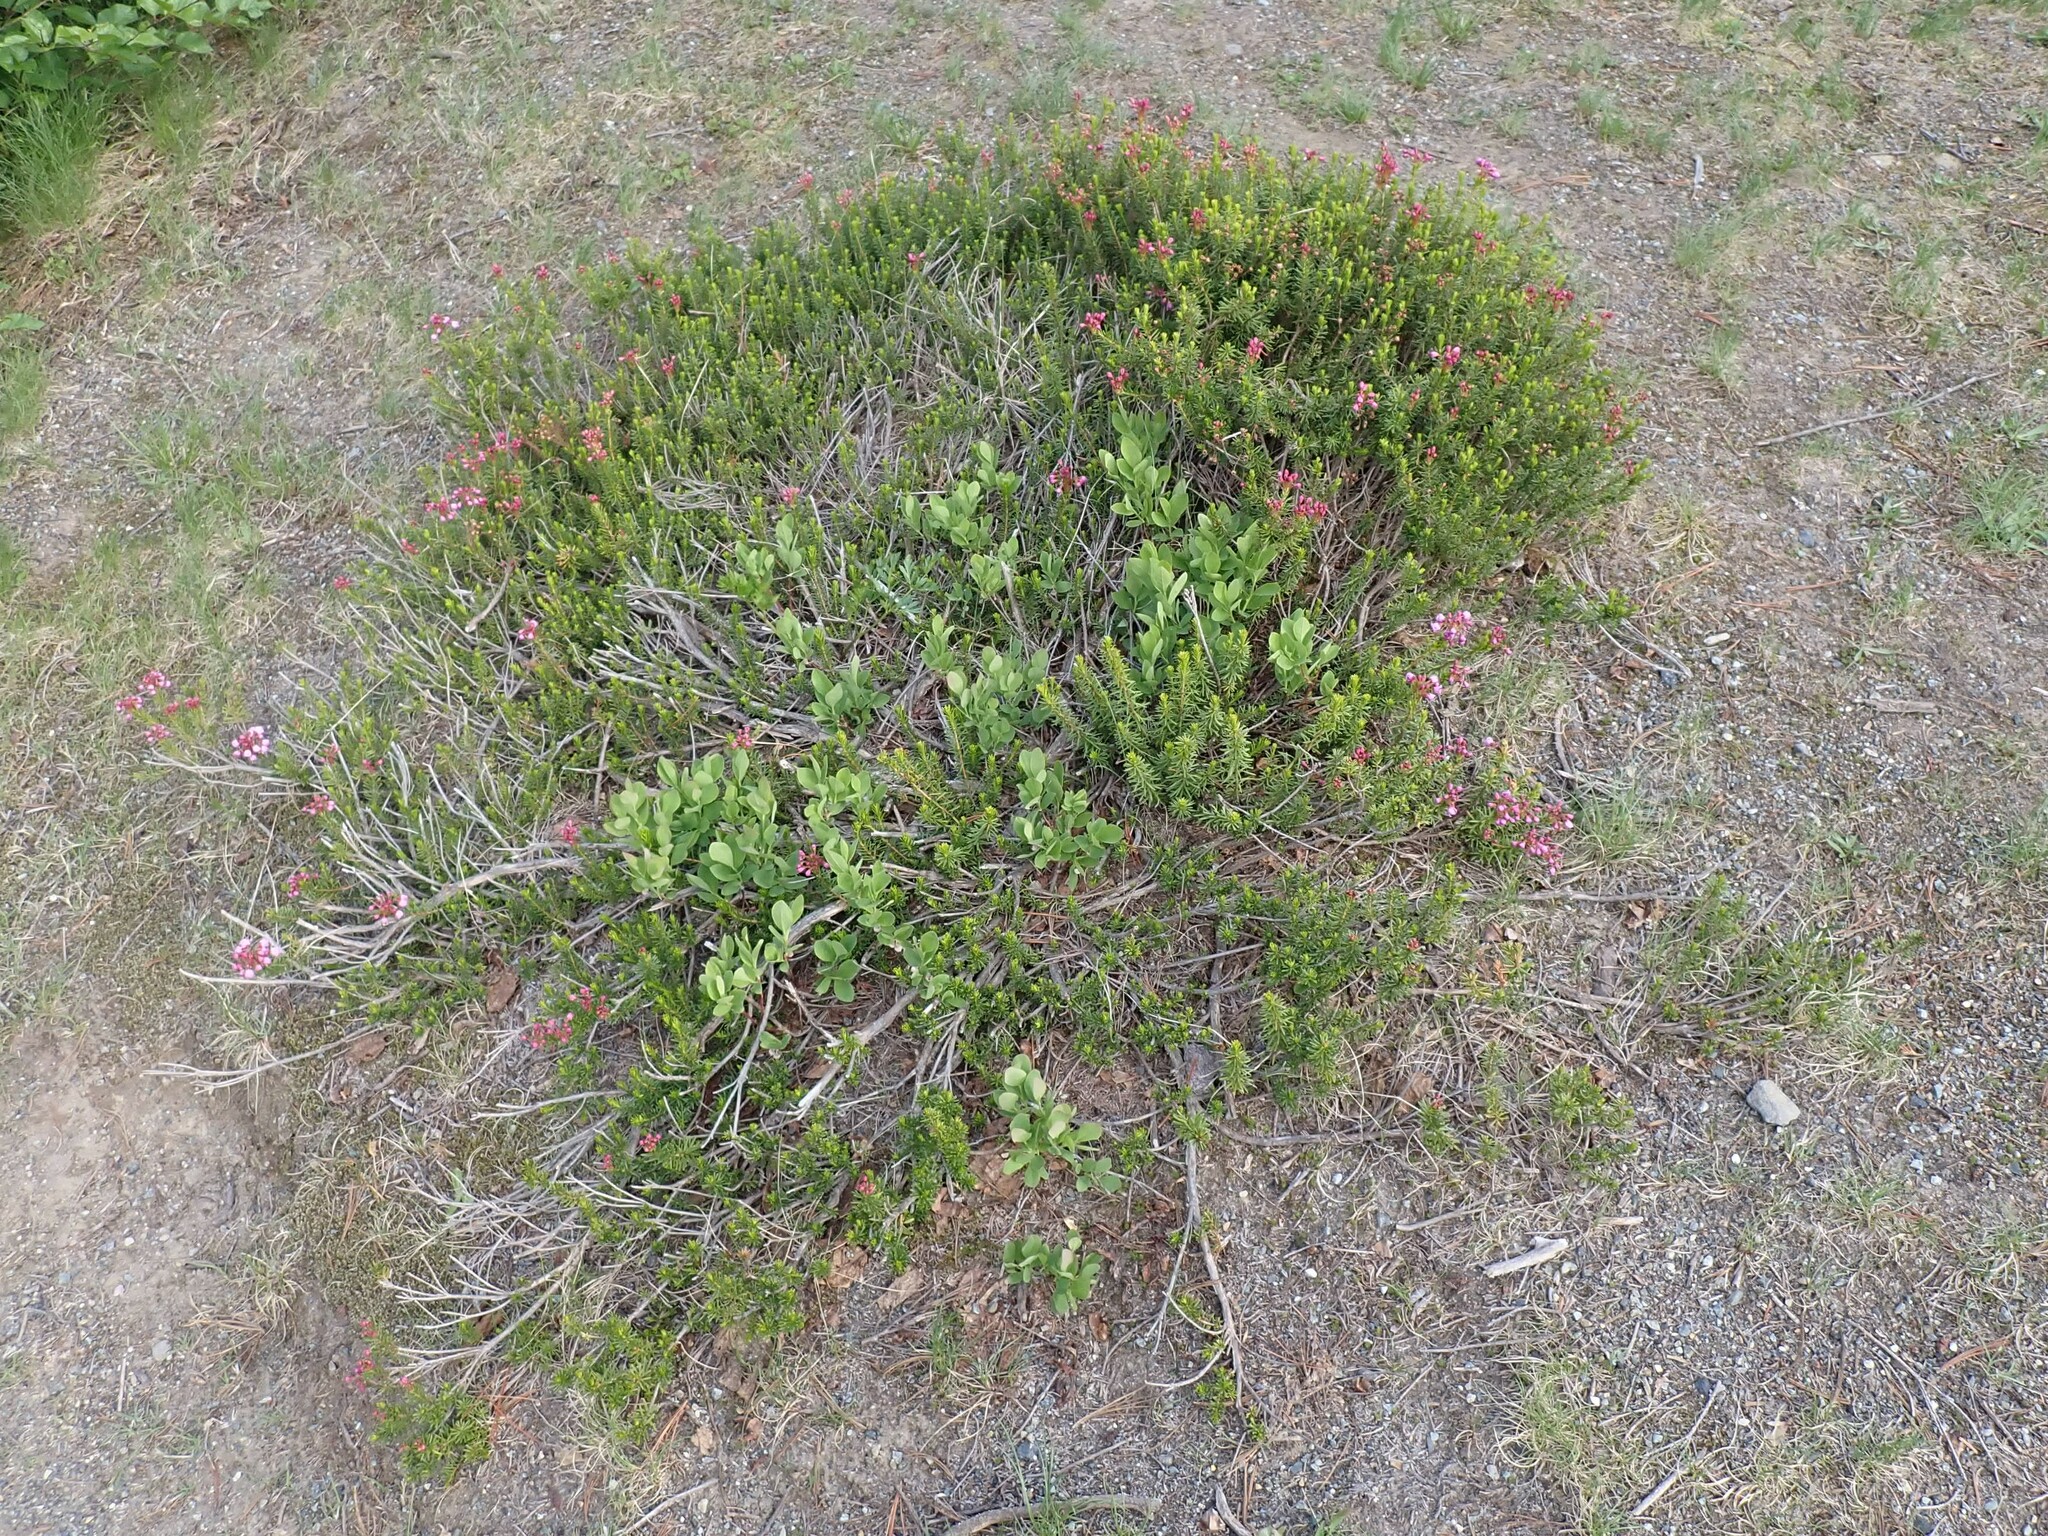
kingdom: Plantae
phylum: Tracheophyta
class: Magnoliopsida
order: Ericales
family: Ericaceae
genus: Phyllodoce
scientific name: Phyllodoce empetriformis
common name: Pink mountain heather
